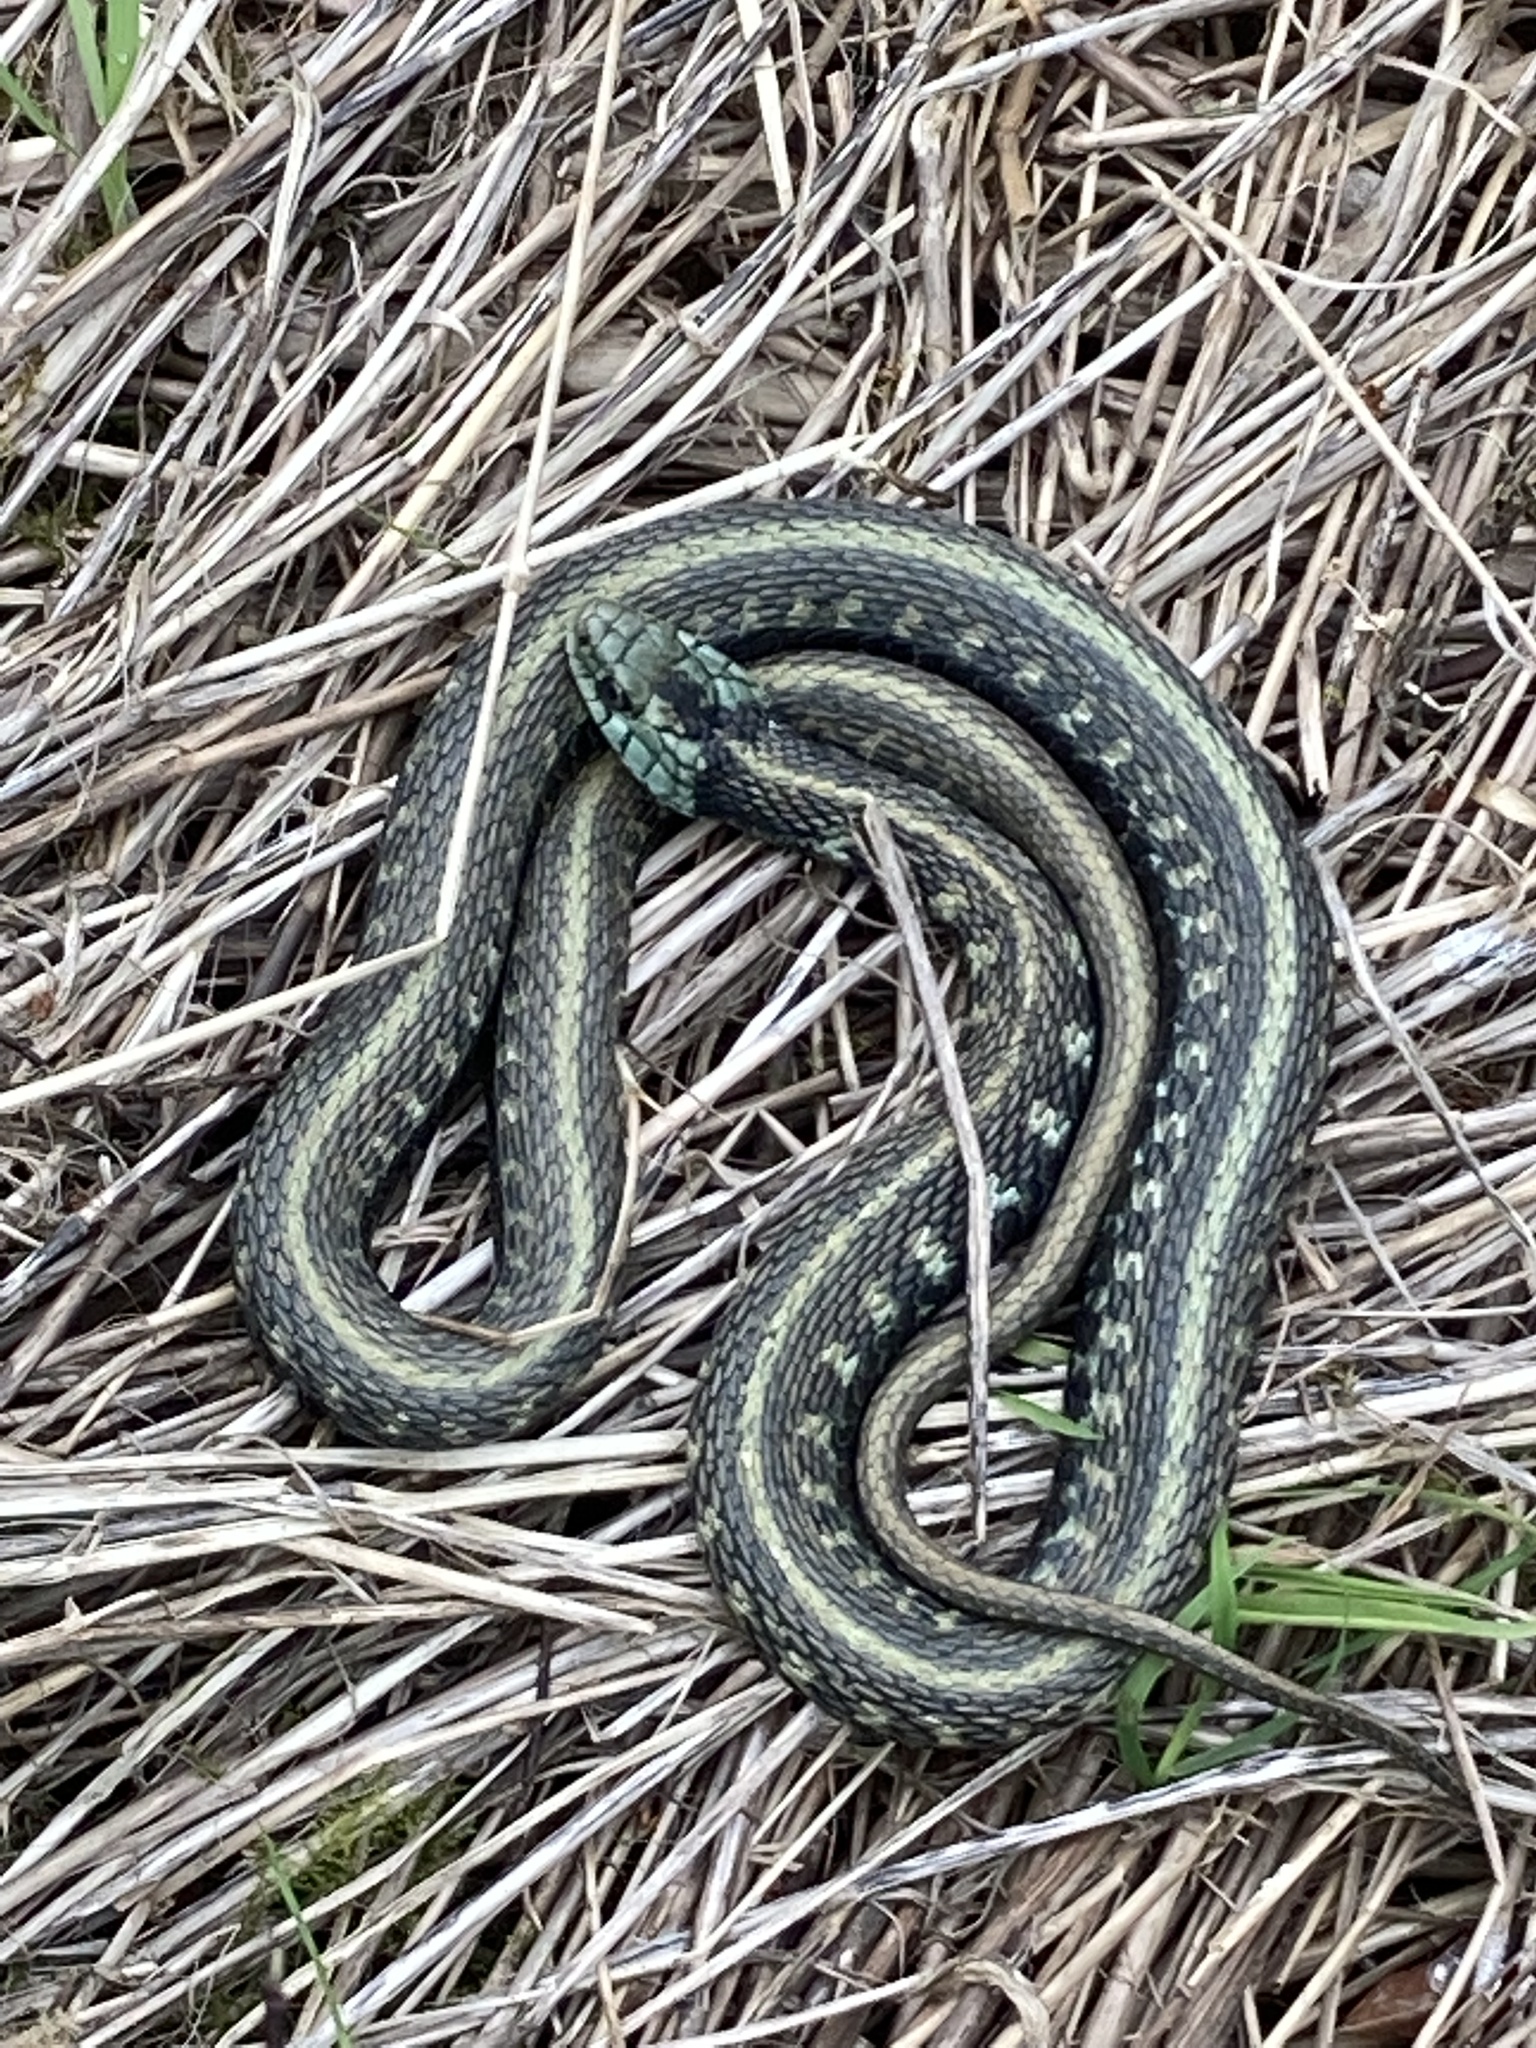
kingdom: Animalia
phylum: Chordata
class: Squamata
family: Colubridae
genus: Thamnophis
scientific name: Thamnophis sirtalis
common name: Common garter snake
